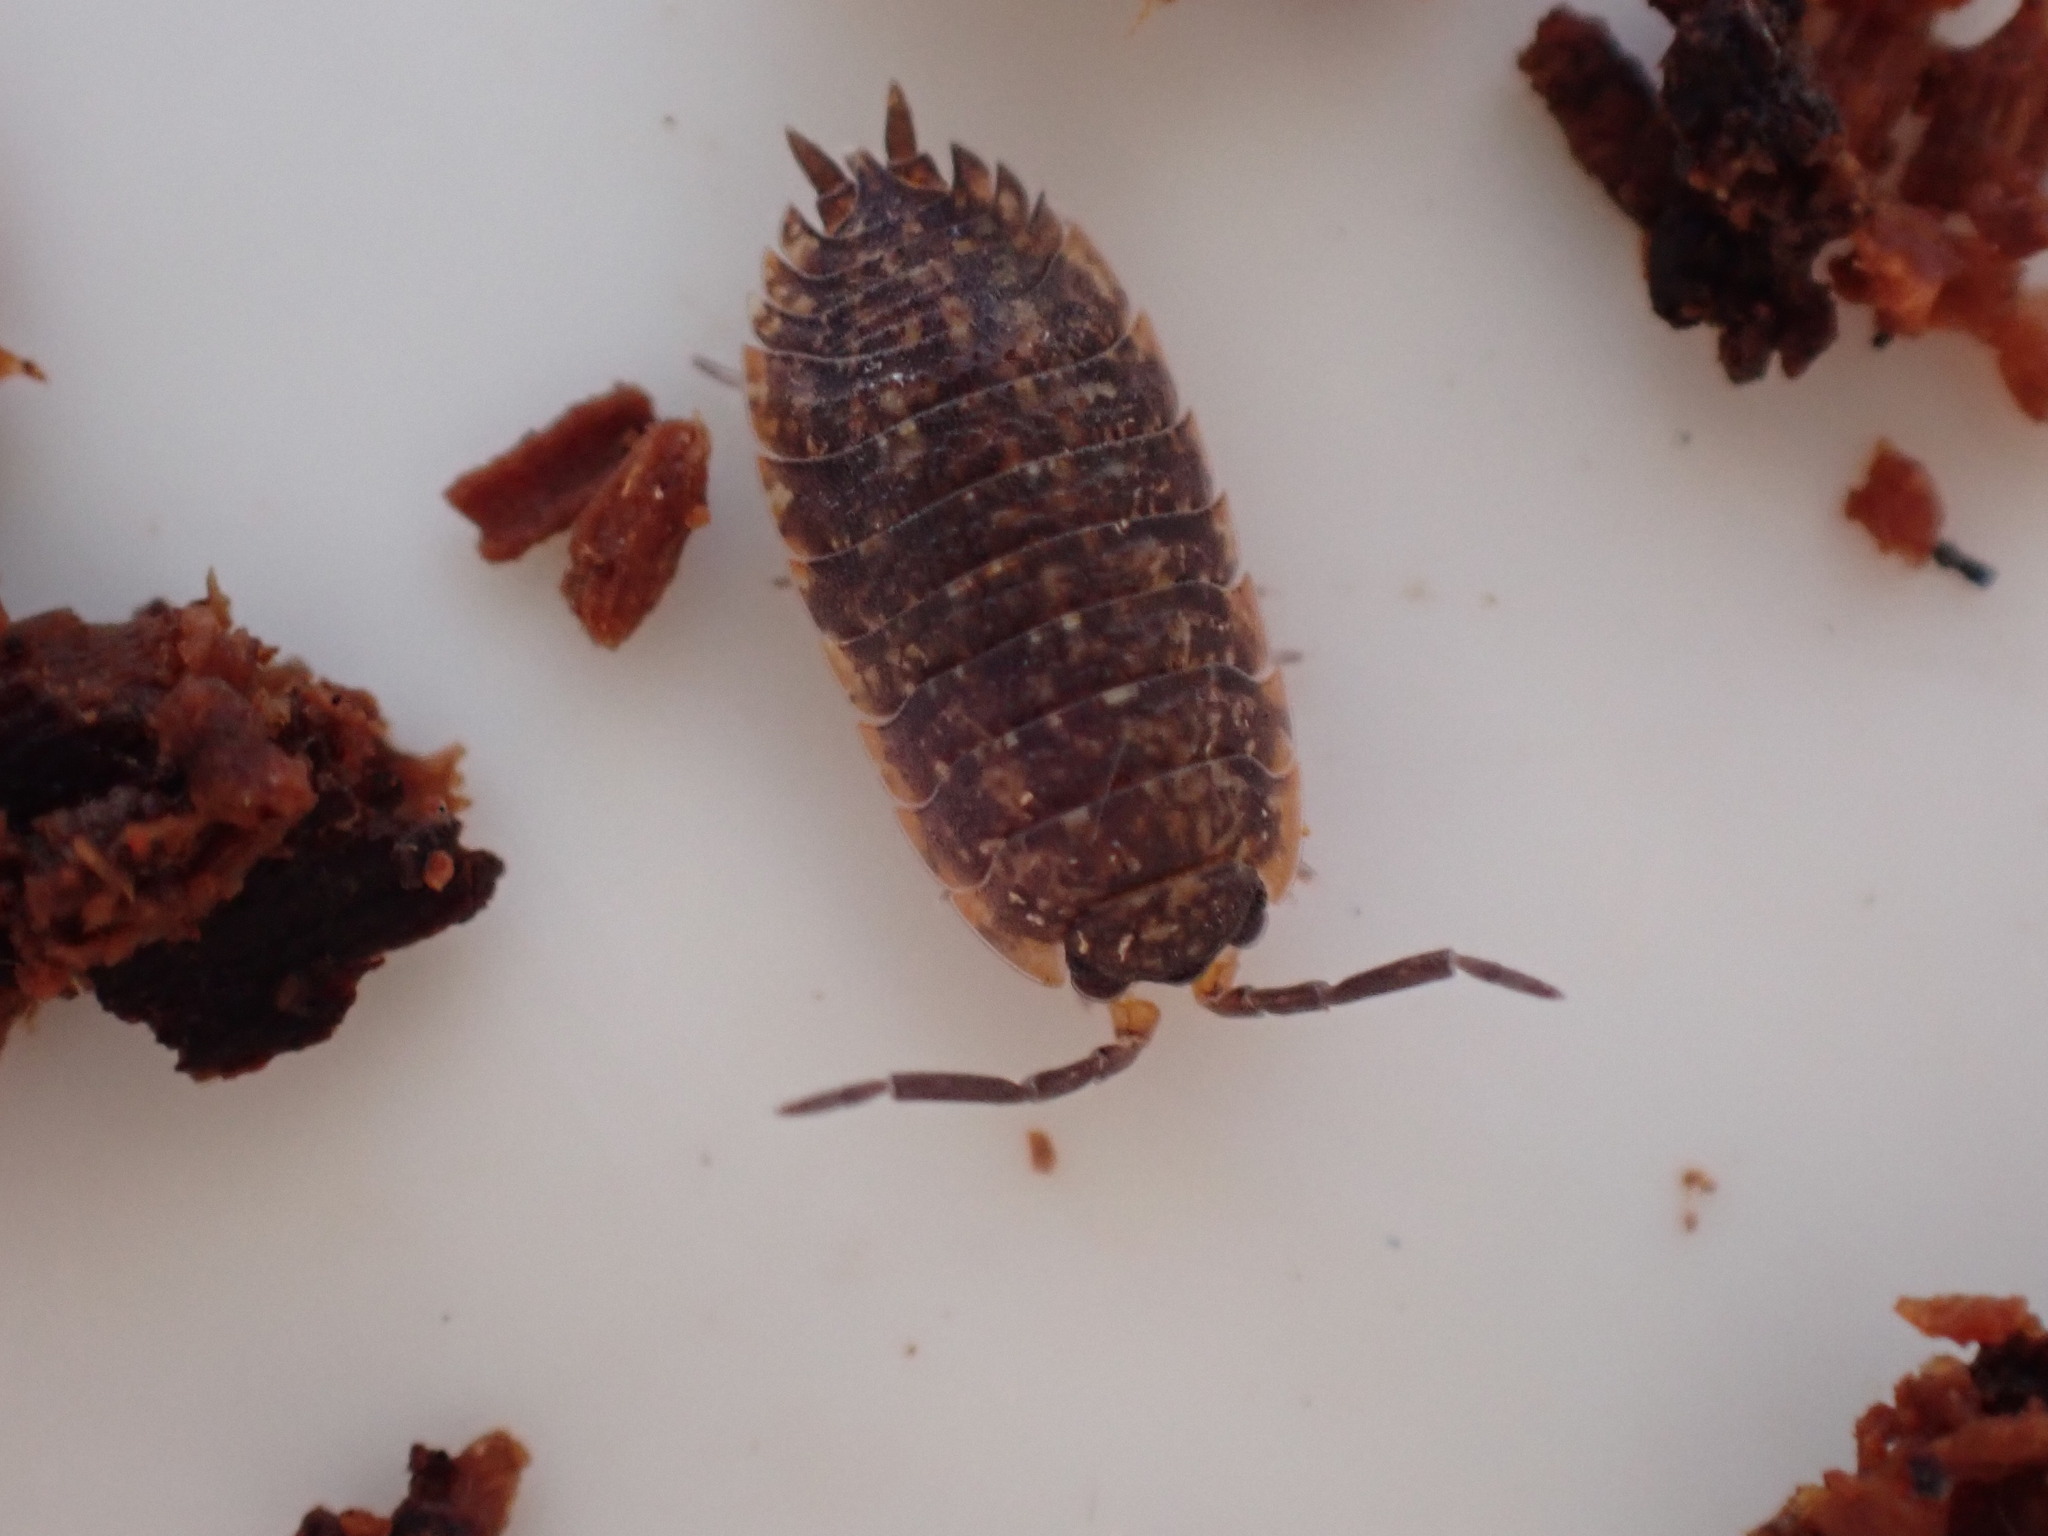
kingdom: Animalia
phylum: Arthropoda
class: Malacostraca
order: Isopoda
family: Porcellionidae
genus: Porcellio
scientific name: Porcellio scaber
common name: Common rough woodlouse
